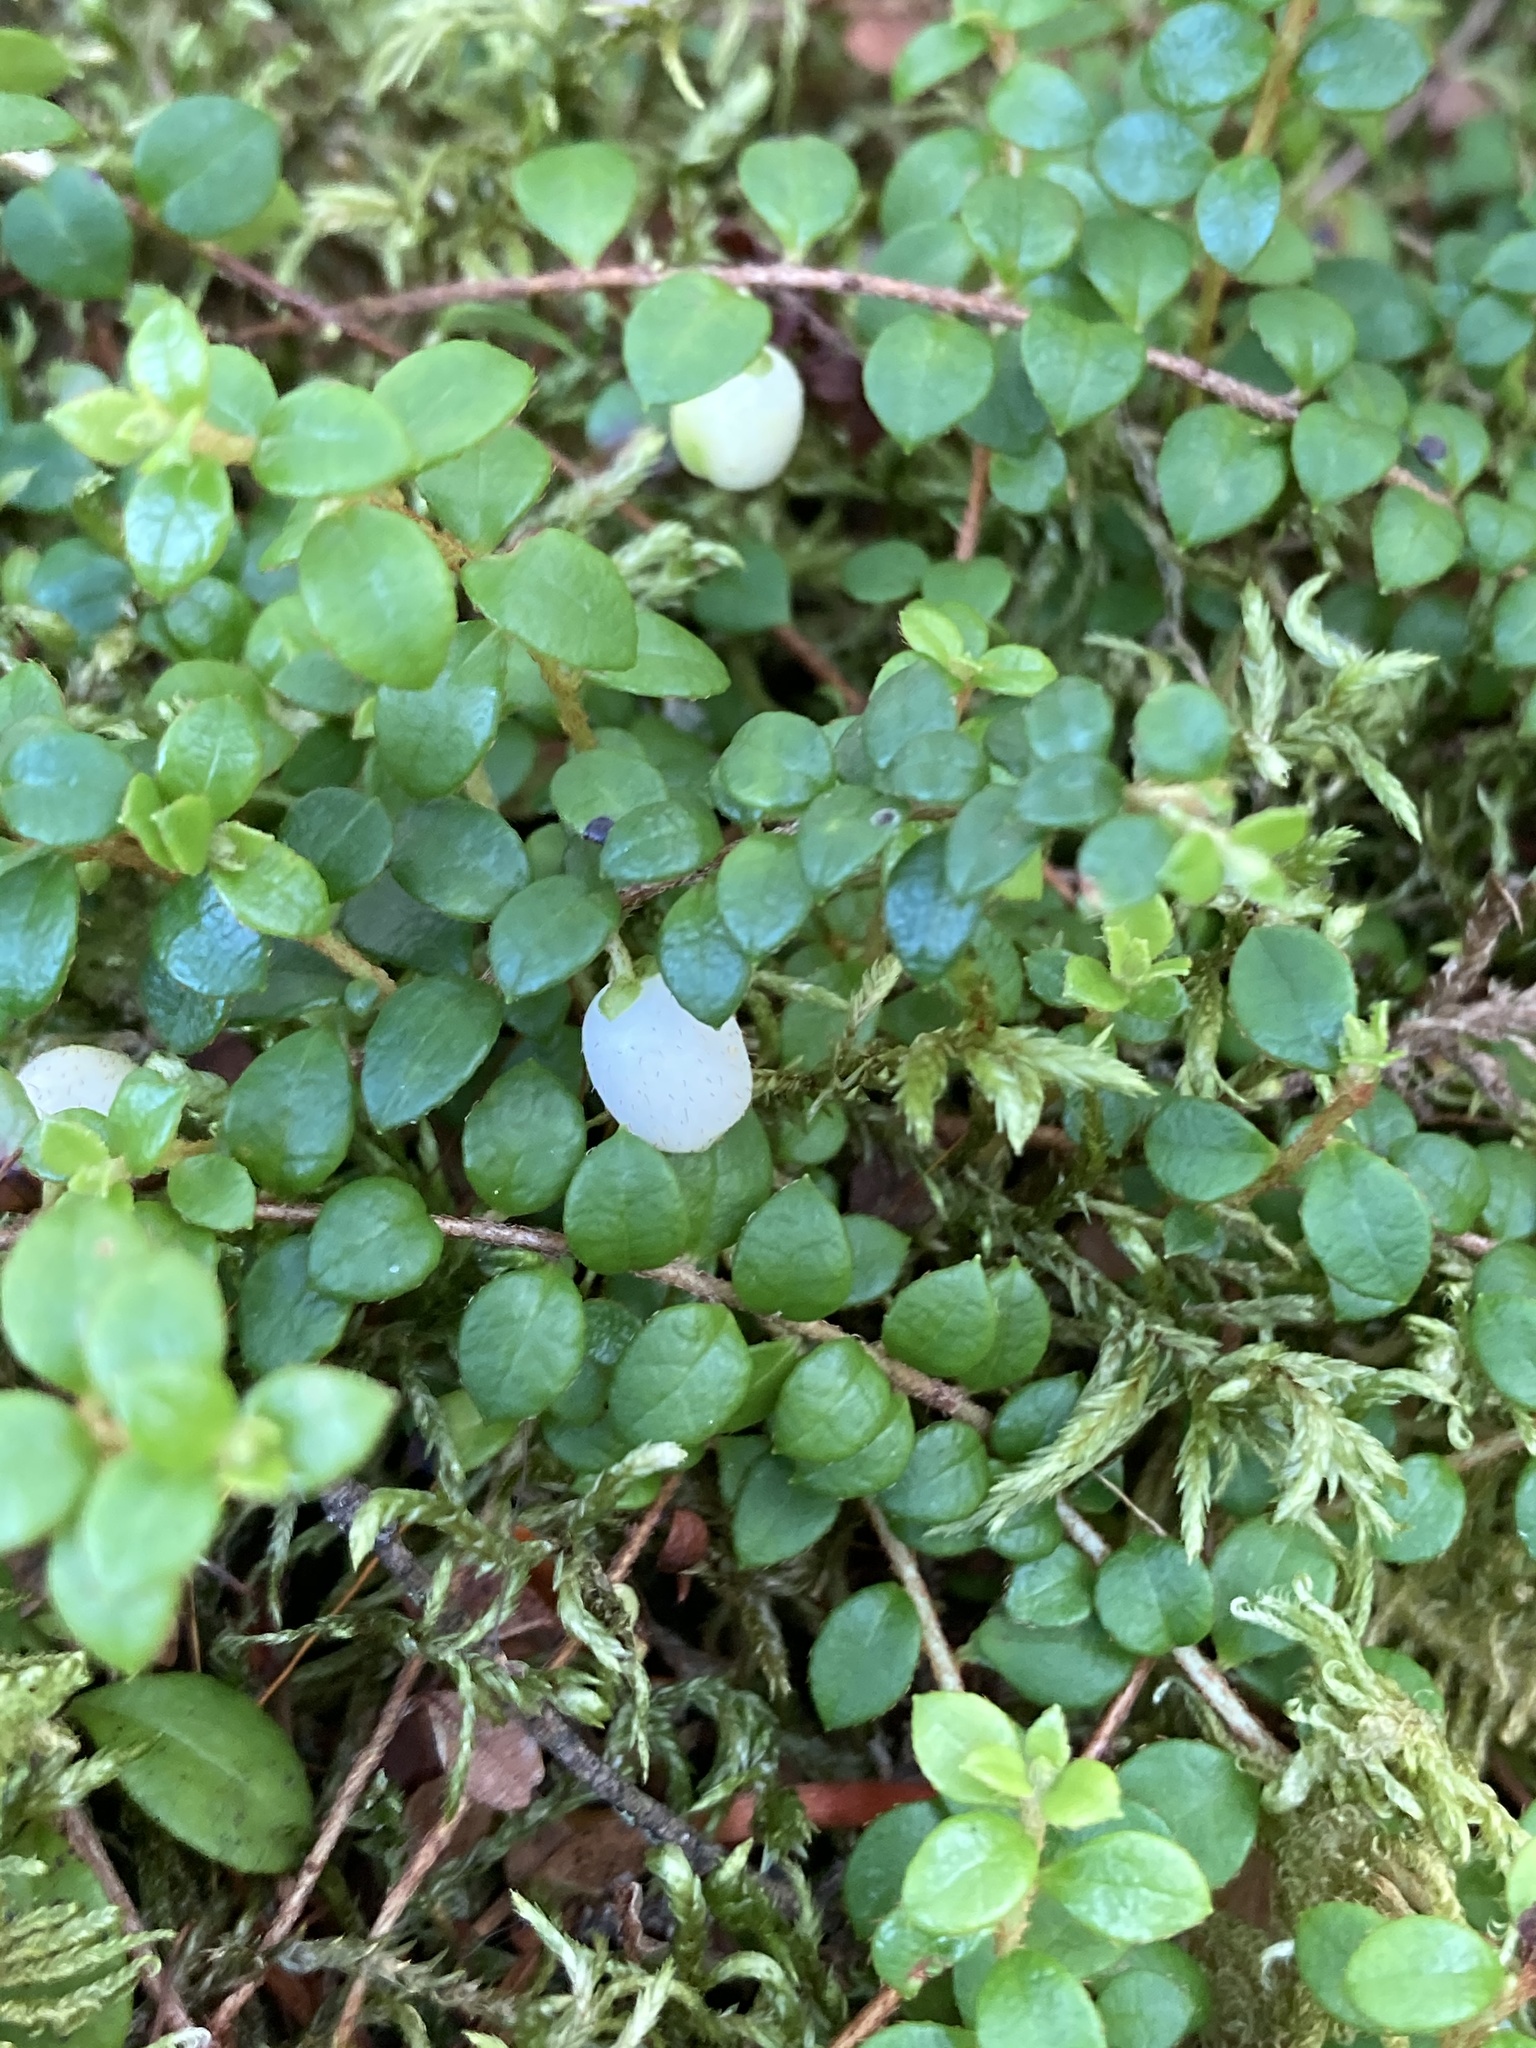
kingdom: Plantae
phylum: Tracheophyta
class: Magnoliopsida
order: Ericales
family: Ericaceae
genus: Gaultheria
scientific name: Gaultheria hispidula
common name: Cancer wintergreen
